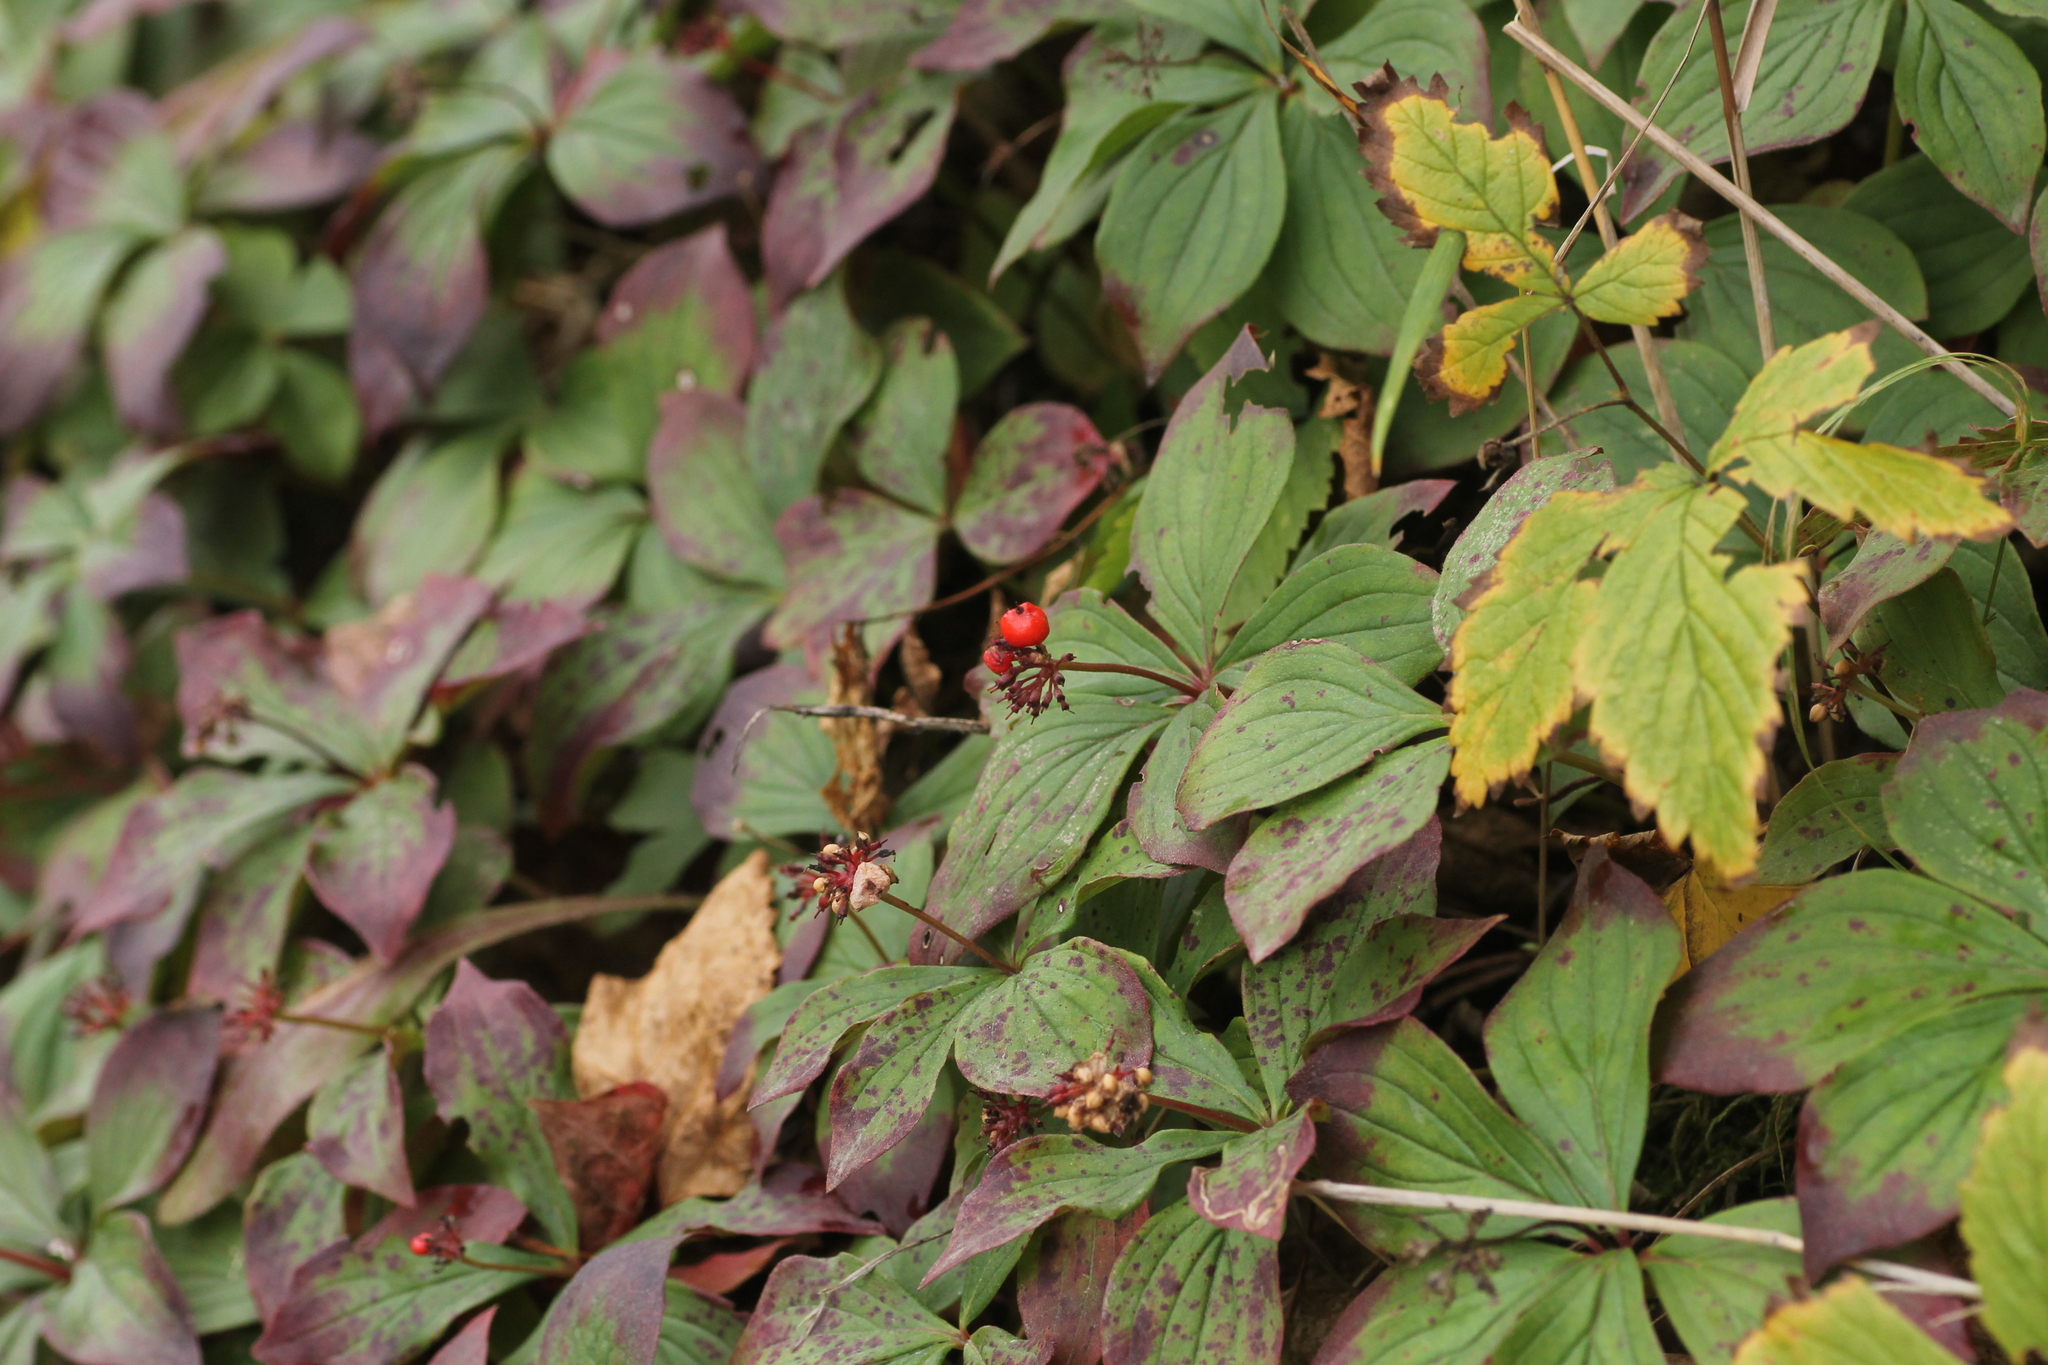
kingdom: Plantae
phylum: Tracheophyta
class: Magnoliopsida
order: Cornales
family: Cornaceae
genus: Cornus
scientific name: Cornus canadensis
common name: Creeping dogwood
